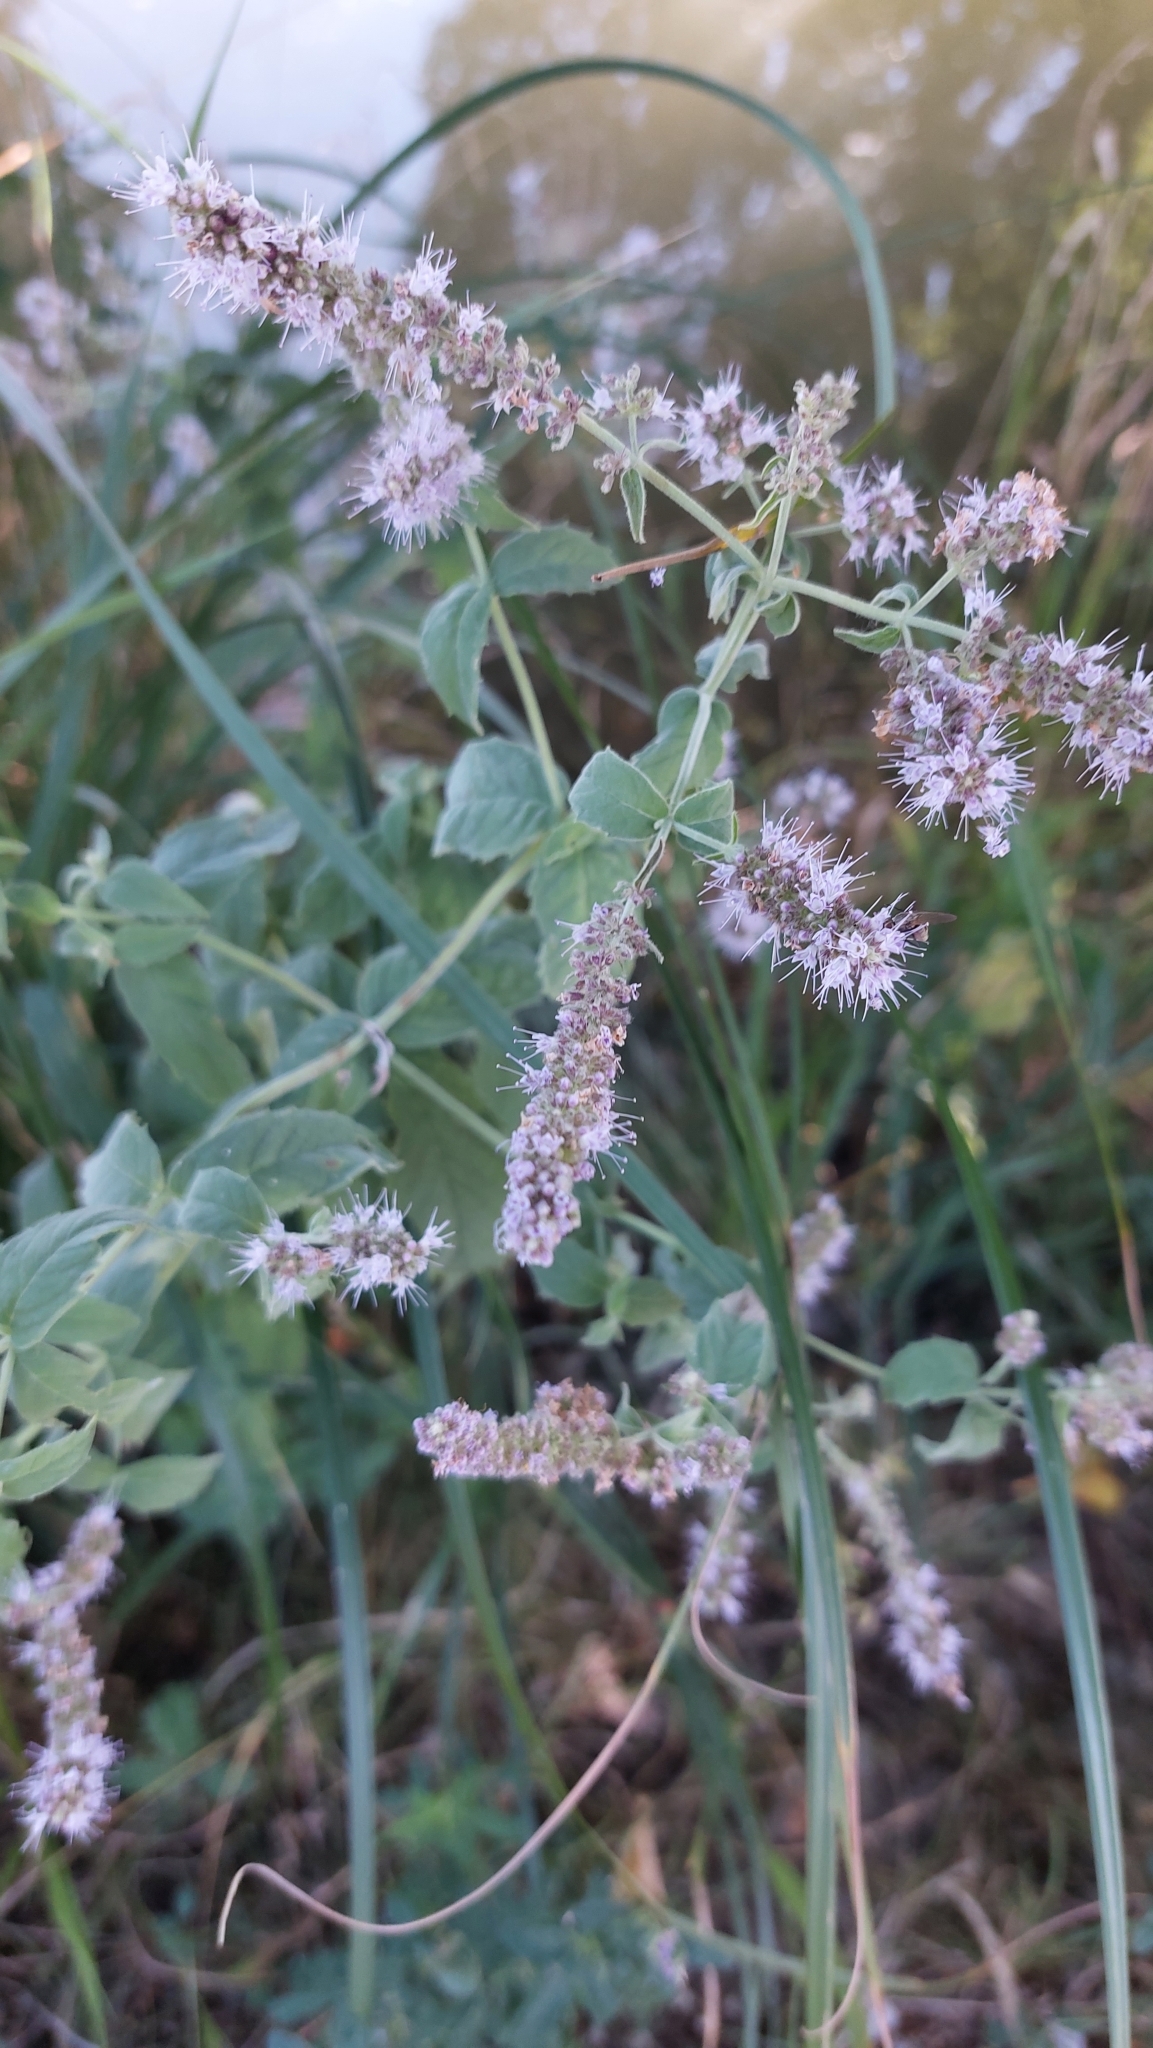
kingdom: Plantae
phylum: Tracheophyta
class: Magnoliopsida
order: Lamiales
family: Lamiaceae
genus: Mentha
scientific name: Mentha longifolia
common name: Horse mint
